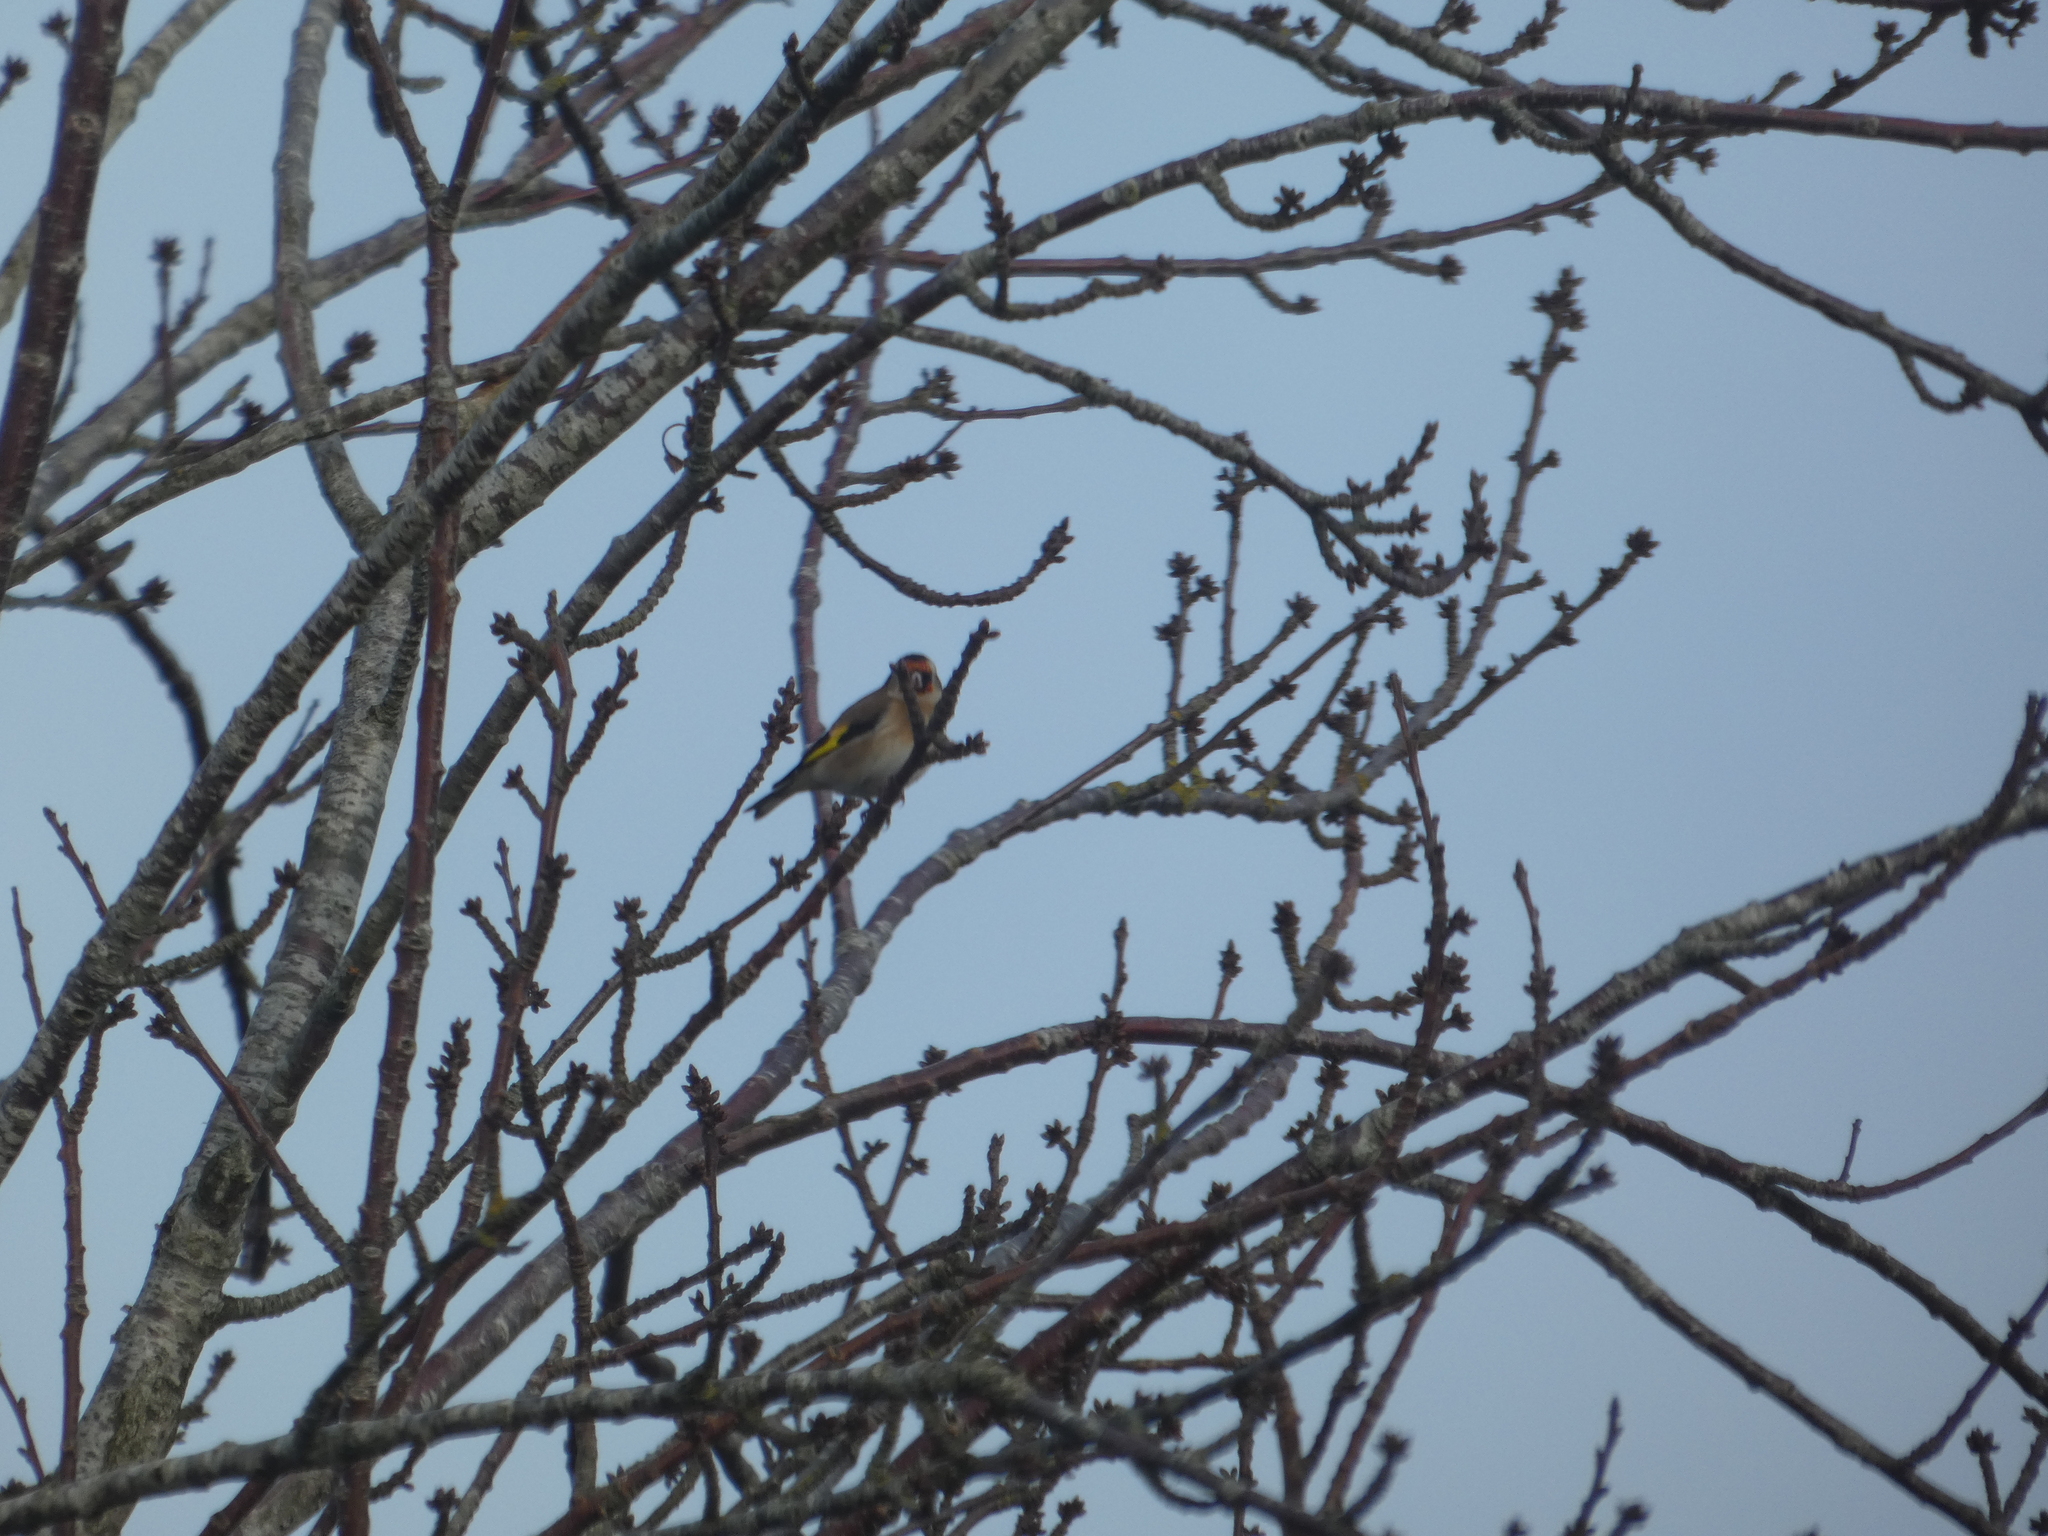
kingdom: Animalia
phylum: Chordata
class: Aves
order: Passeriformes
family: Fringillidae
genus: Carduelis
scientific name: Carduelis carduelis
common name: European goldfinch
